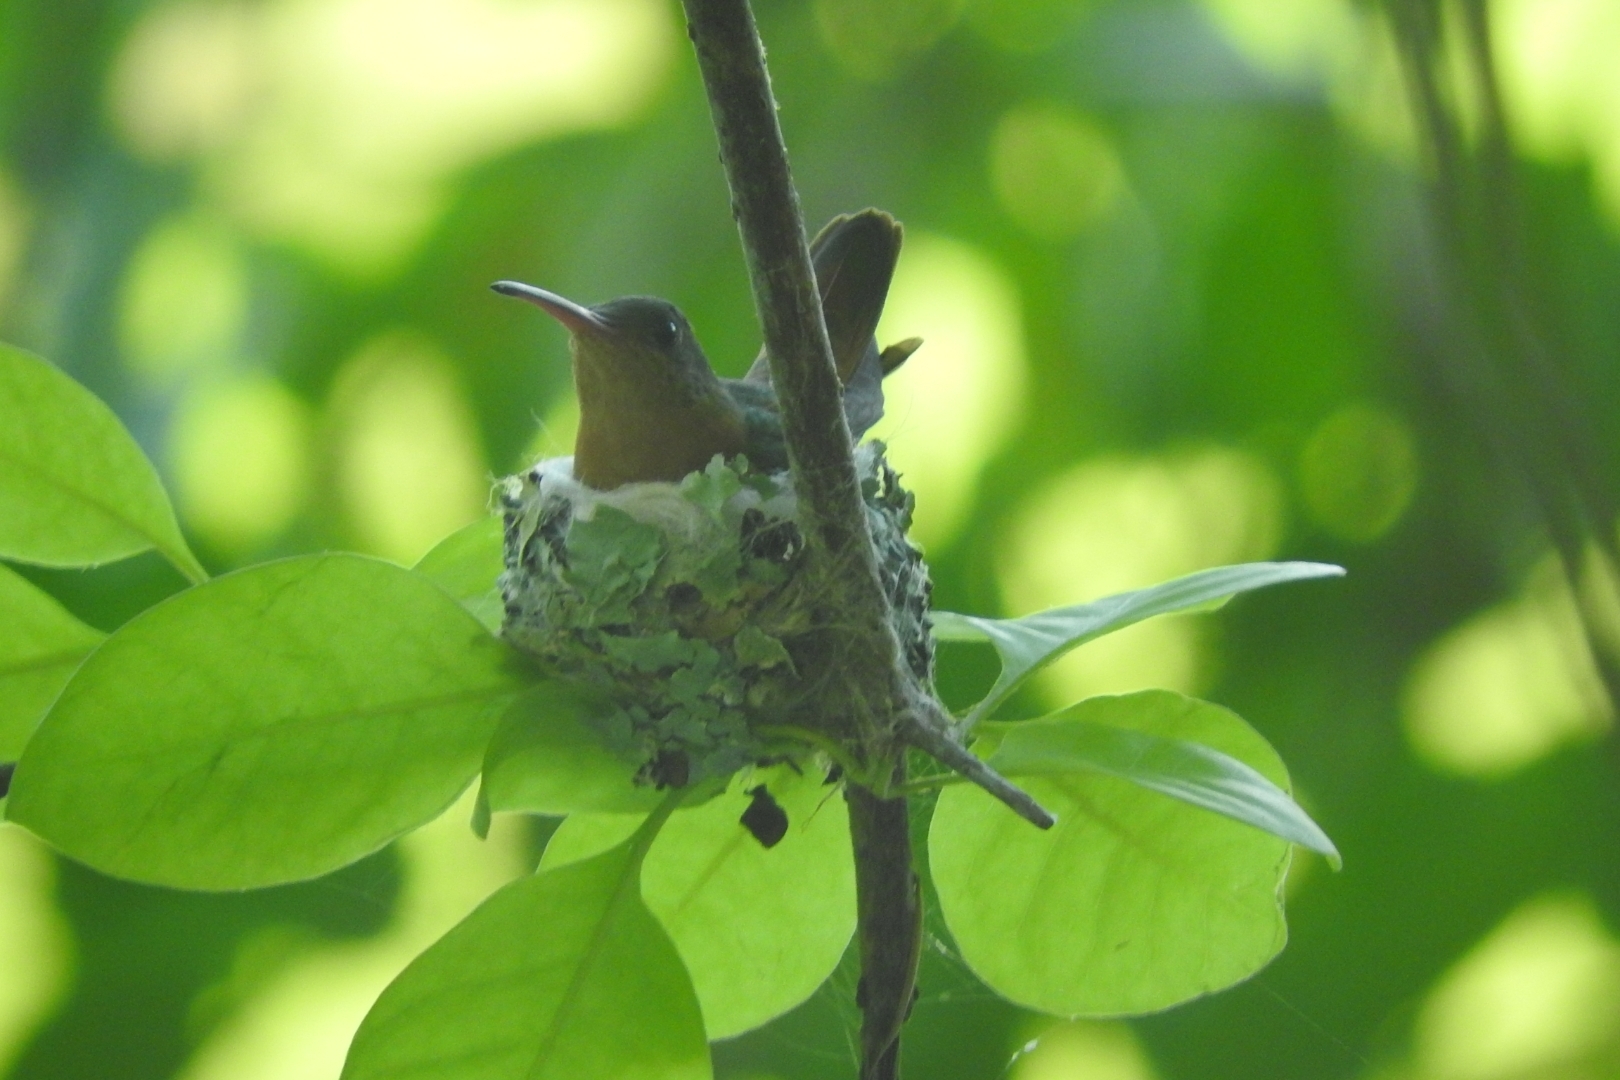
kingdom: Animalia
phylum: Chordata
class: Aves
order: Apodiformes
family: Trochilidae
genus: Amazilia
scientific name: Amazilia rutila
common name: Cinnamon hummingbird
